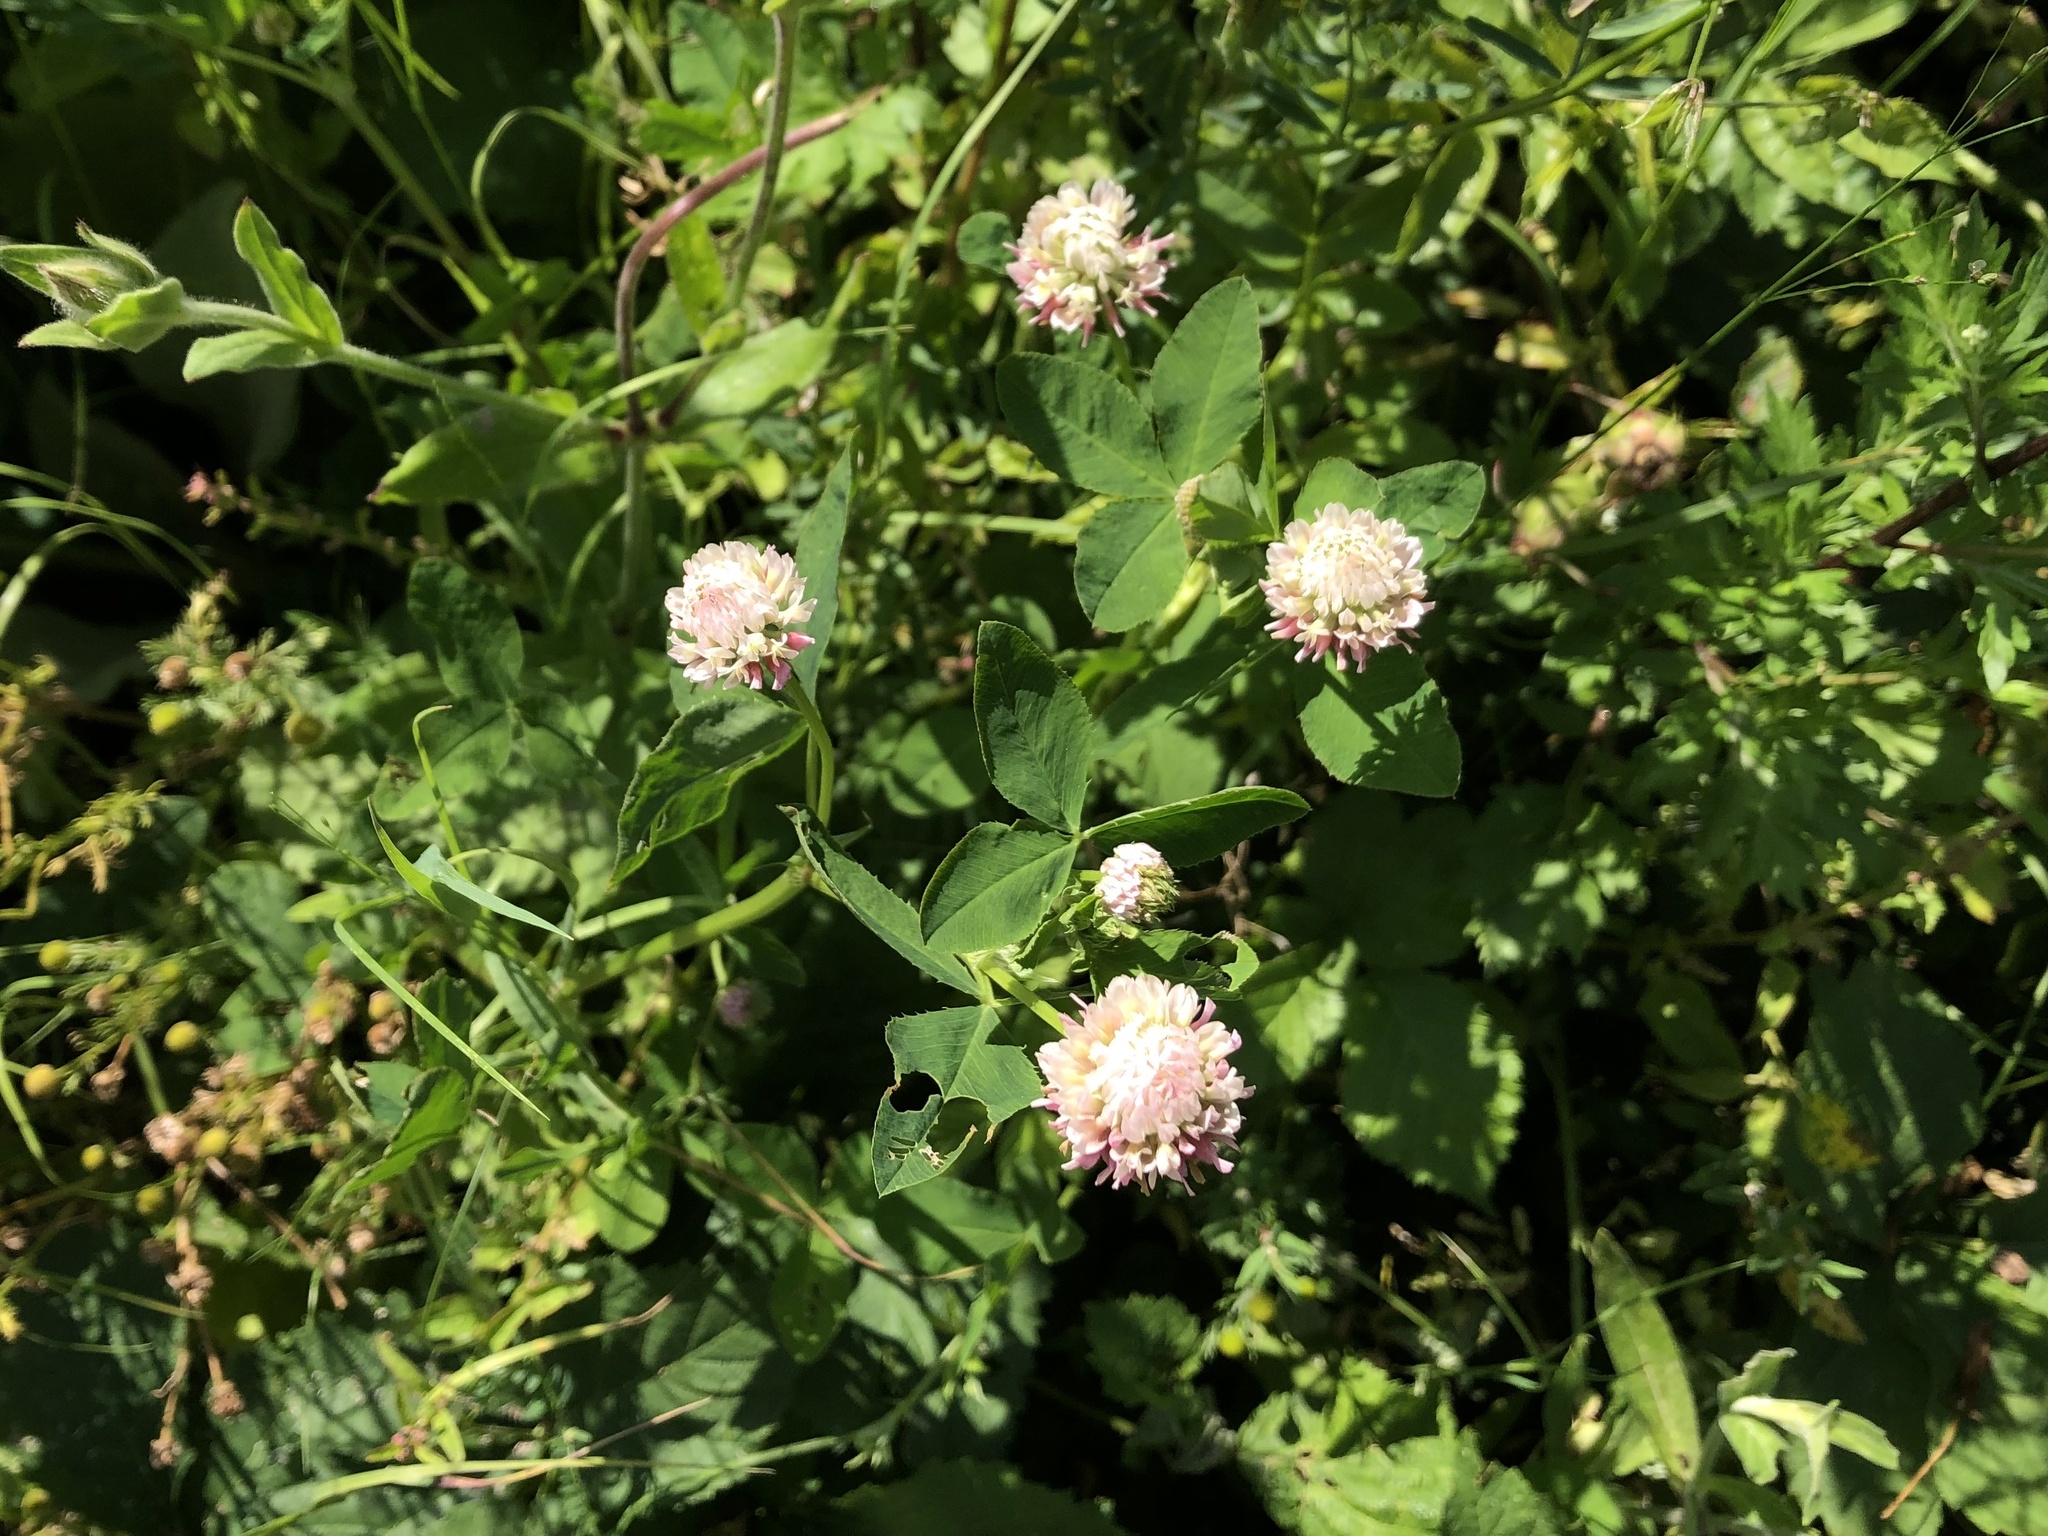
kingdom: Plantae
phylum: Tracheophyta
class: Magnoliopsida
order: Fabales
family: Fabaceae
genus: Trifolium
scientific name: Trifolium hybridum
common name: Alsike clover
